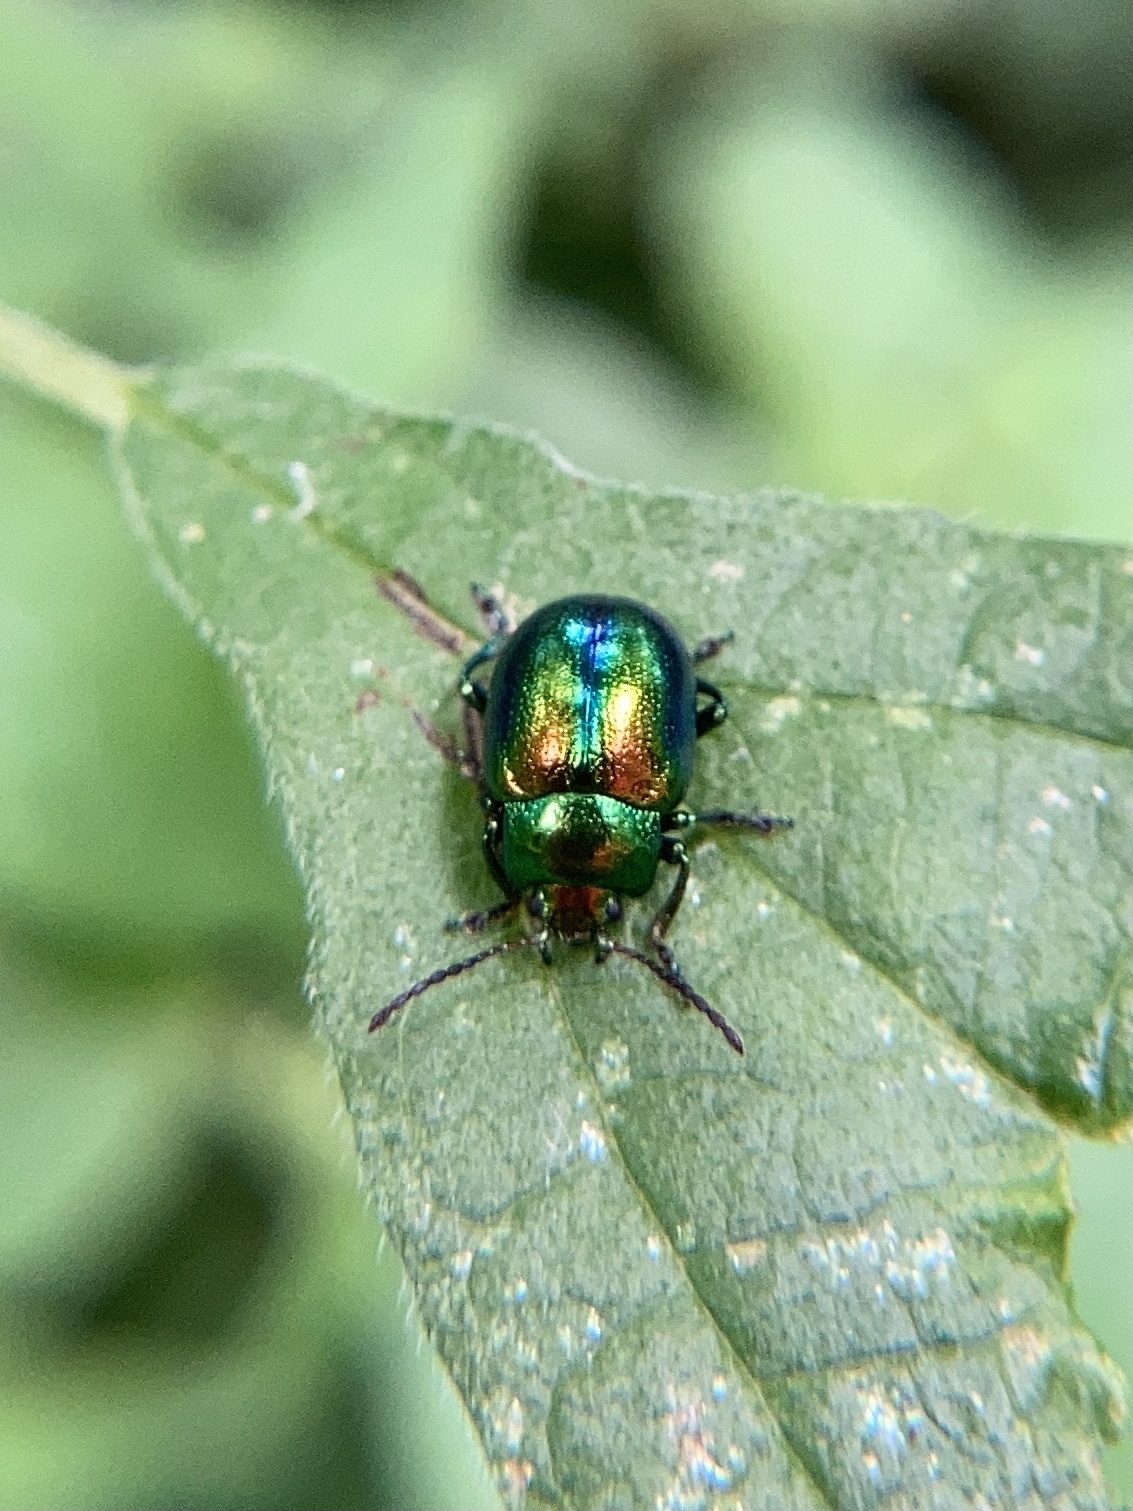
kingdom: Animalia
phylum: Arthropoda
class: Insecta
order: Coleoptera
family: Chrysomelidae
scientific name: Chrysomelidae
